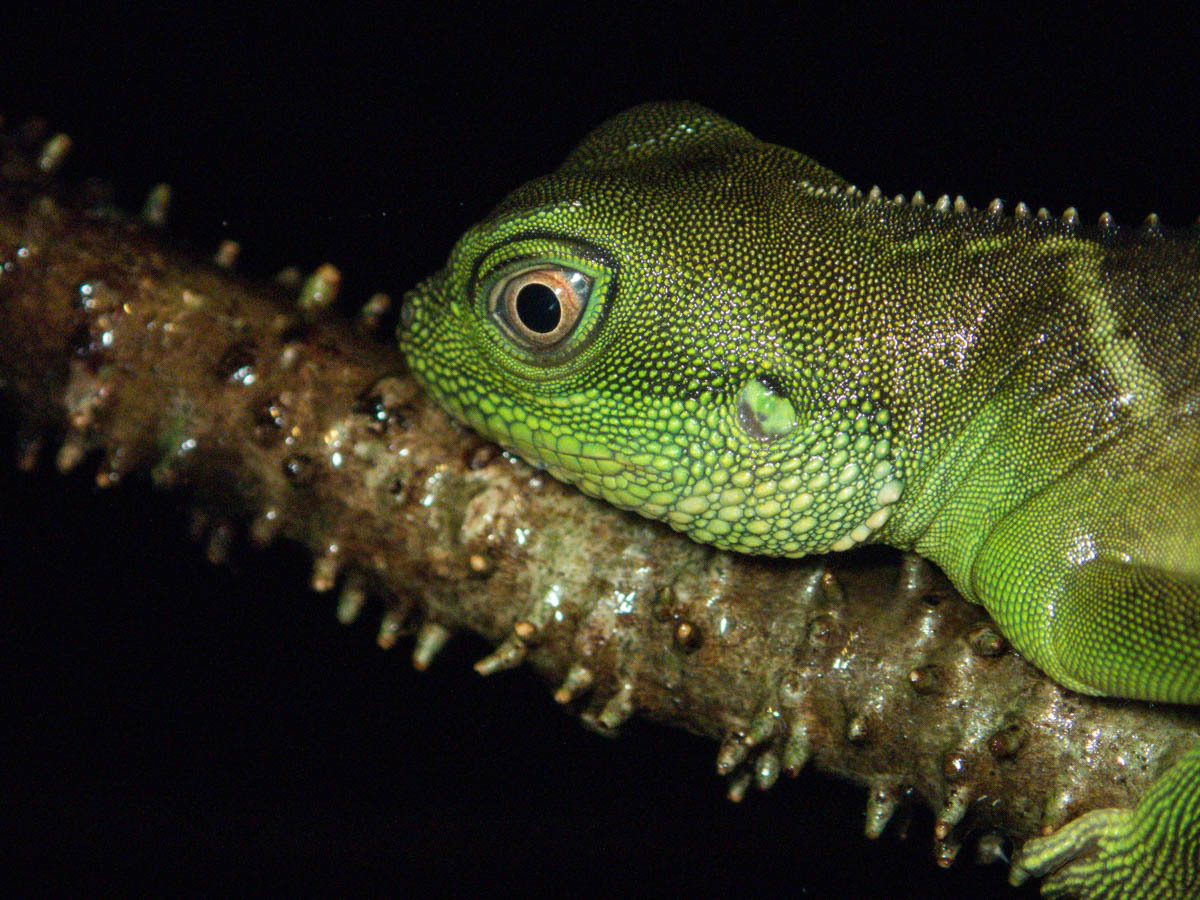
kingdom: Animalia
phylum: Chordata
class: Squamata
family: Agamidae
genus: Physignathus
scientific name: Physignathus cocincinus
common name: Asian water dragon
